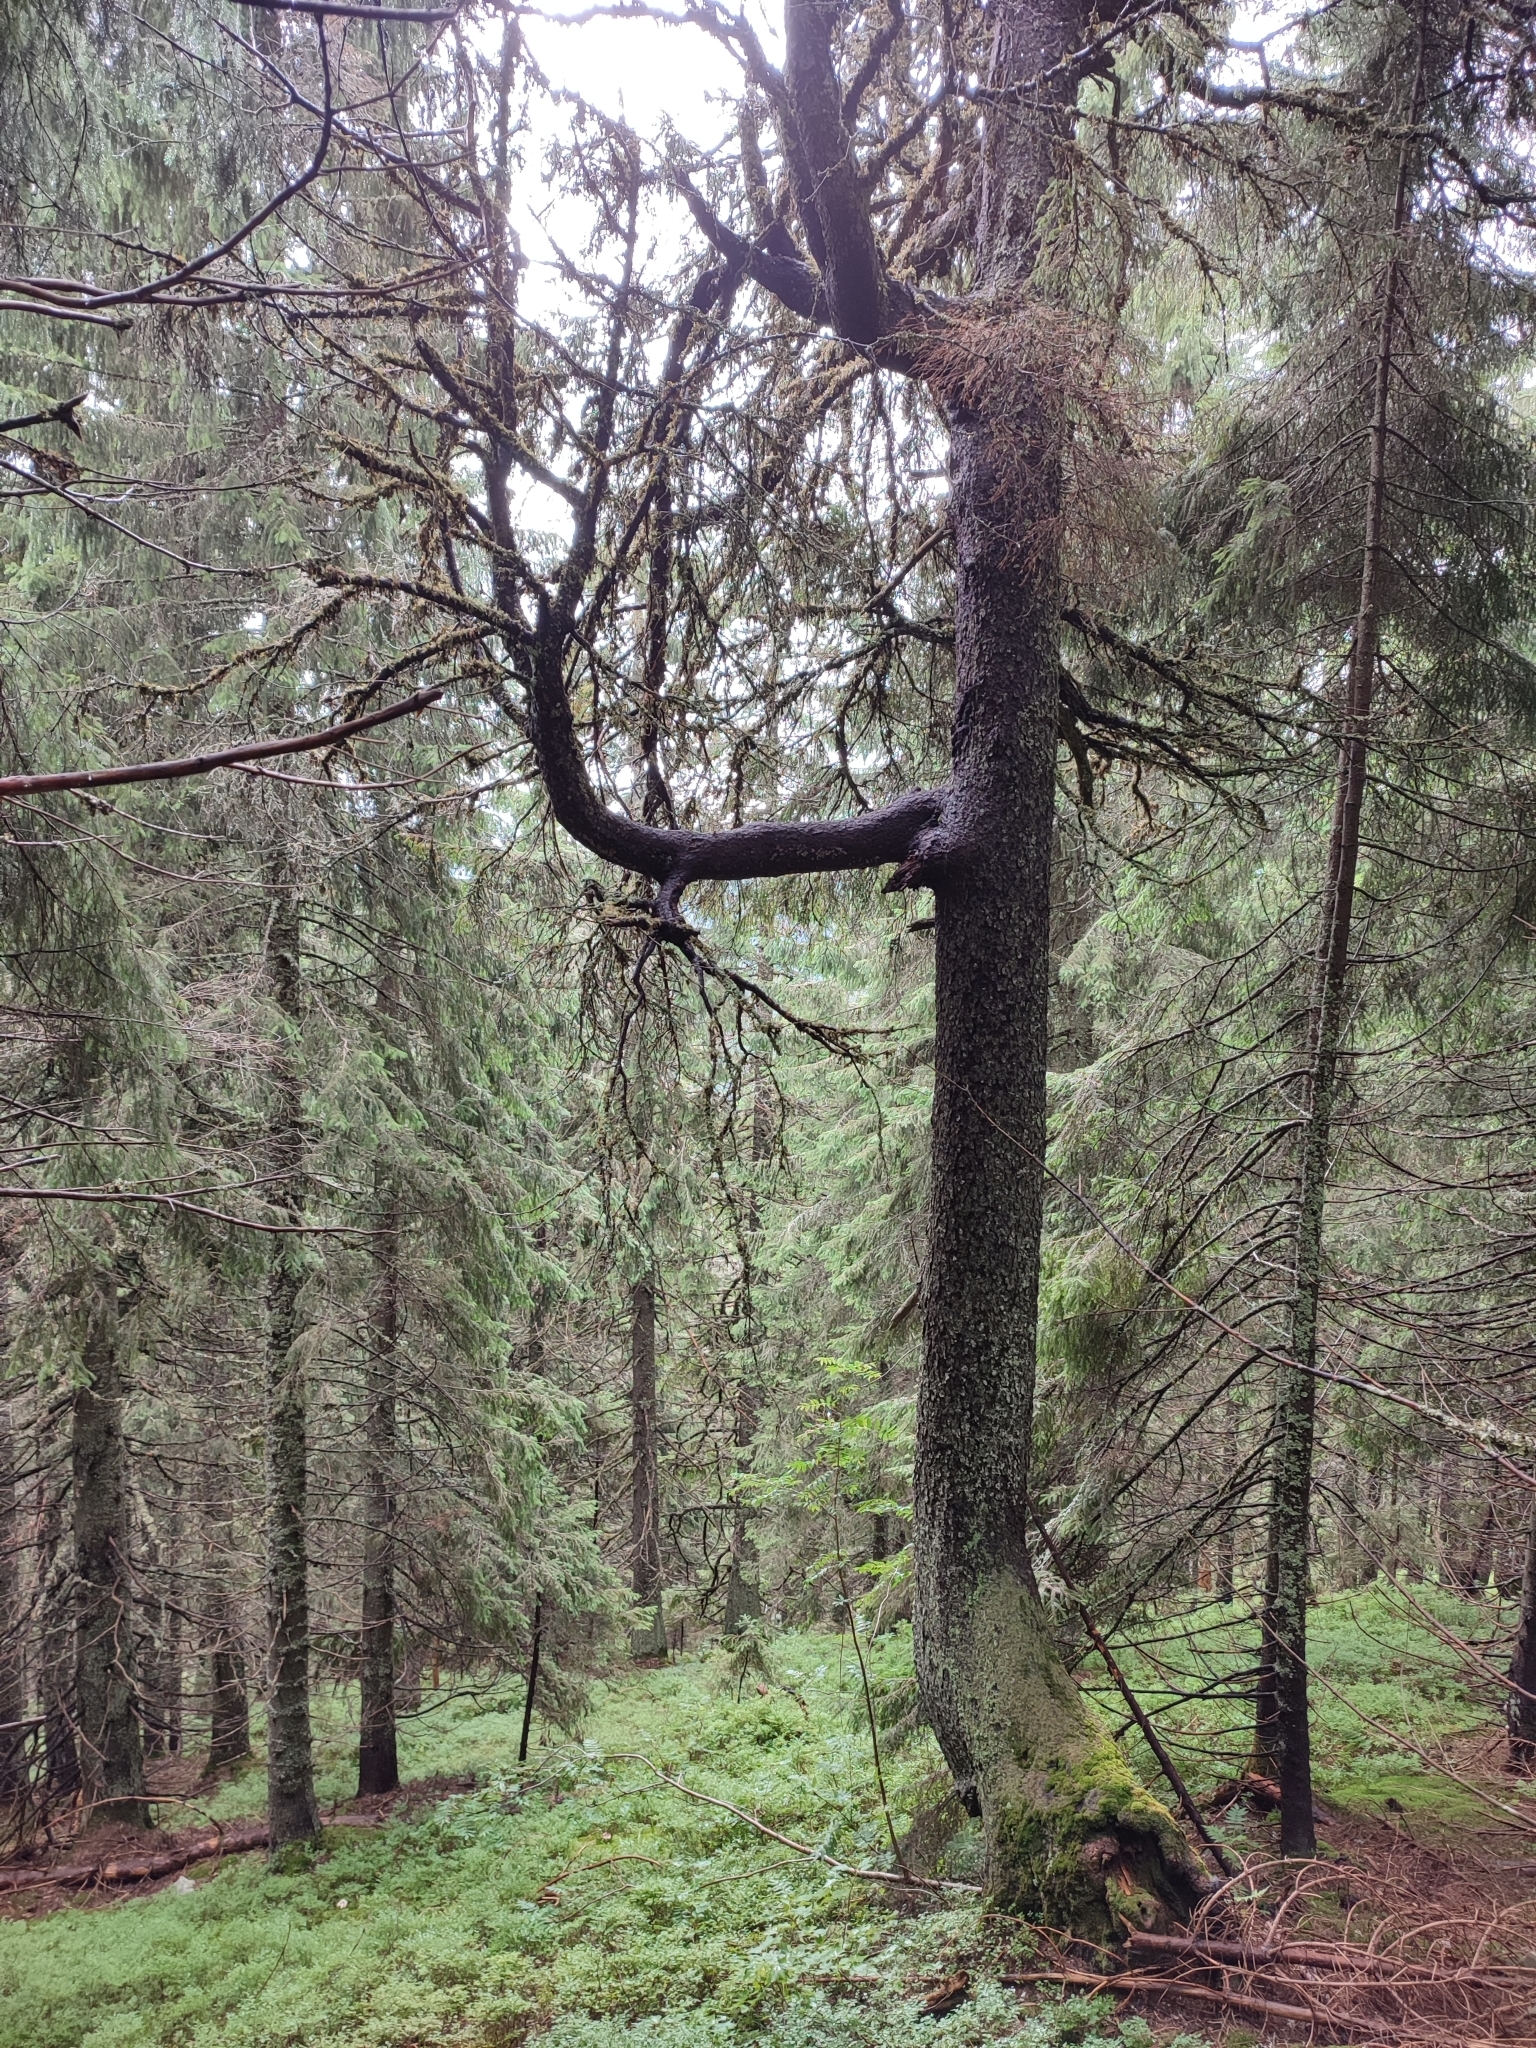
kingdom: Plantae
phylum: Tracheophyta
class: Pinopsida
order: Pinales
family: Pinaceae
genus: Picea
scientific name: Picea abies
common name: Norway spruce
